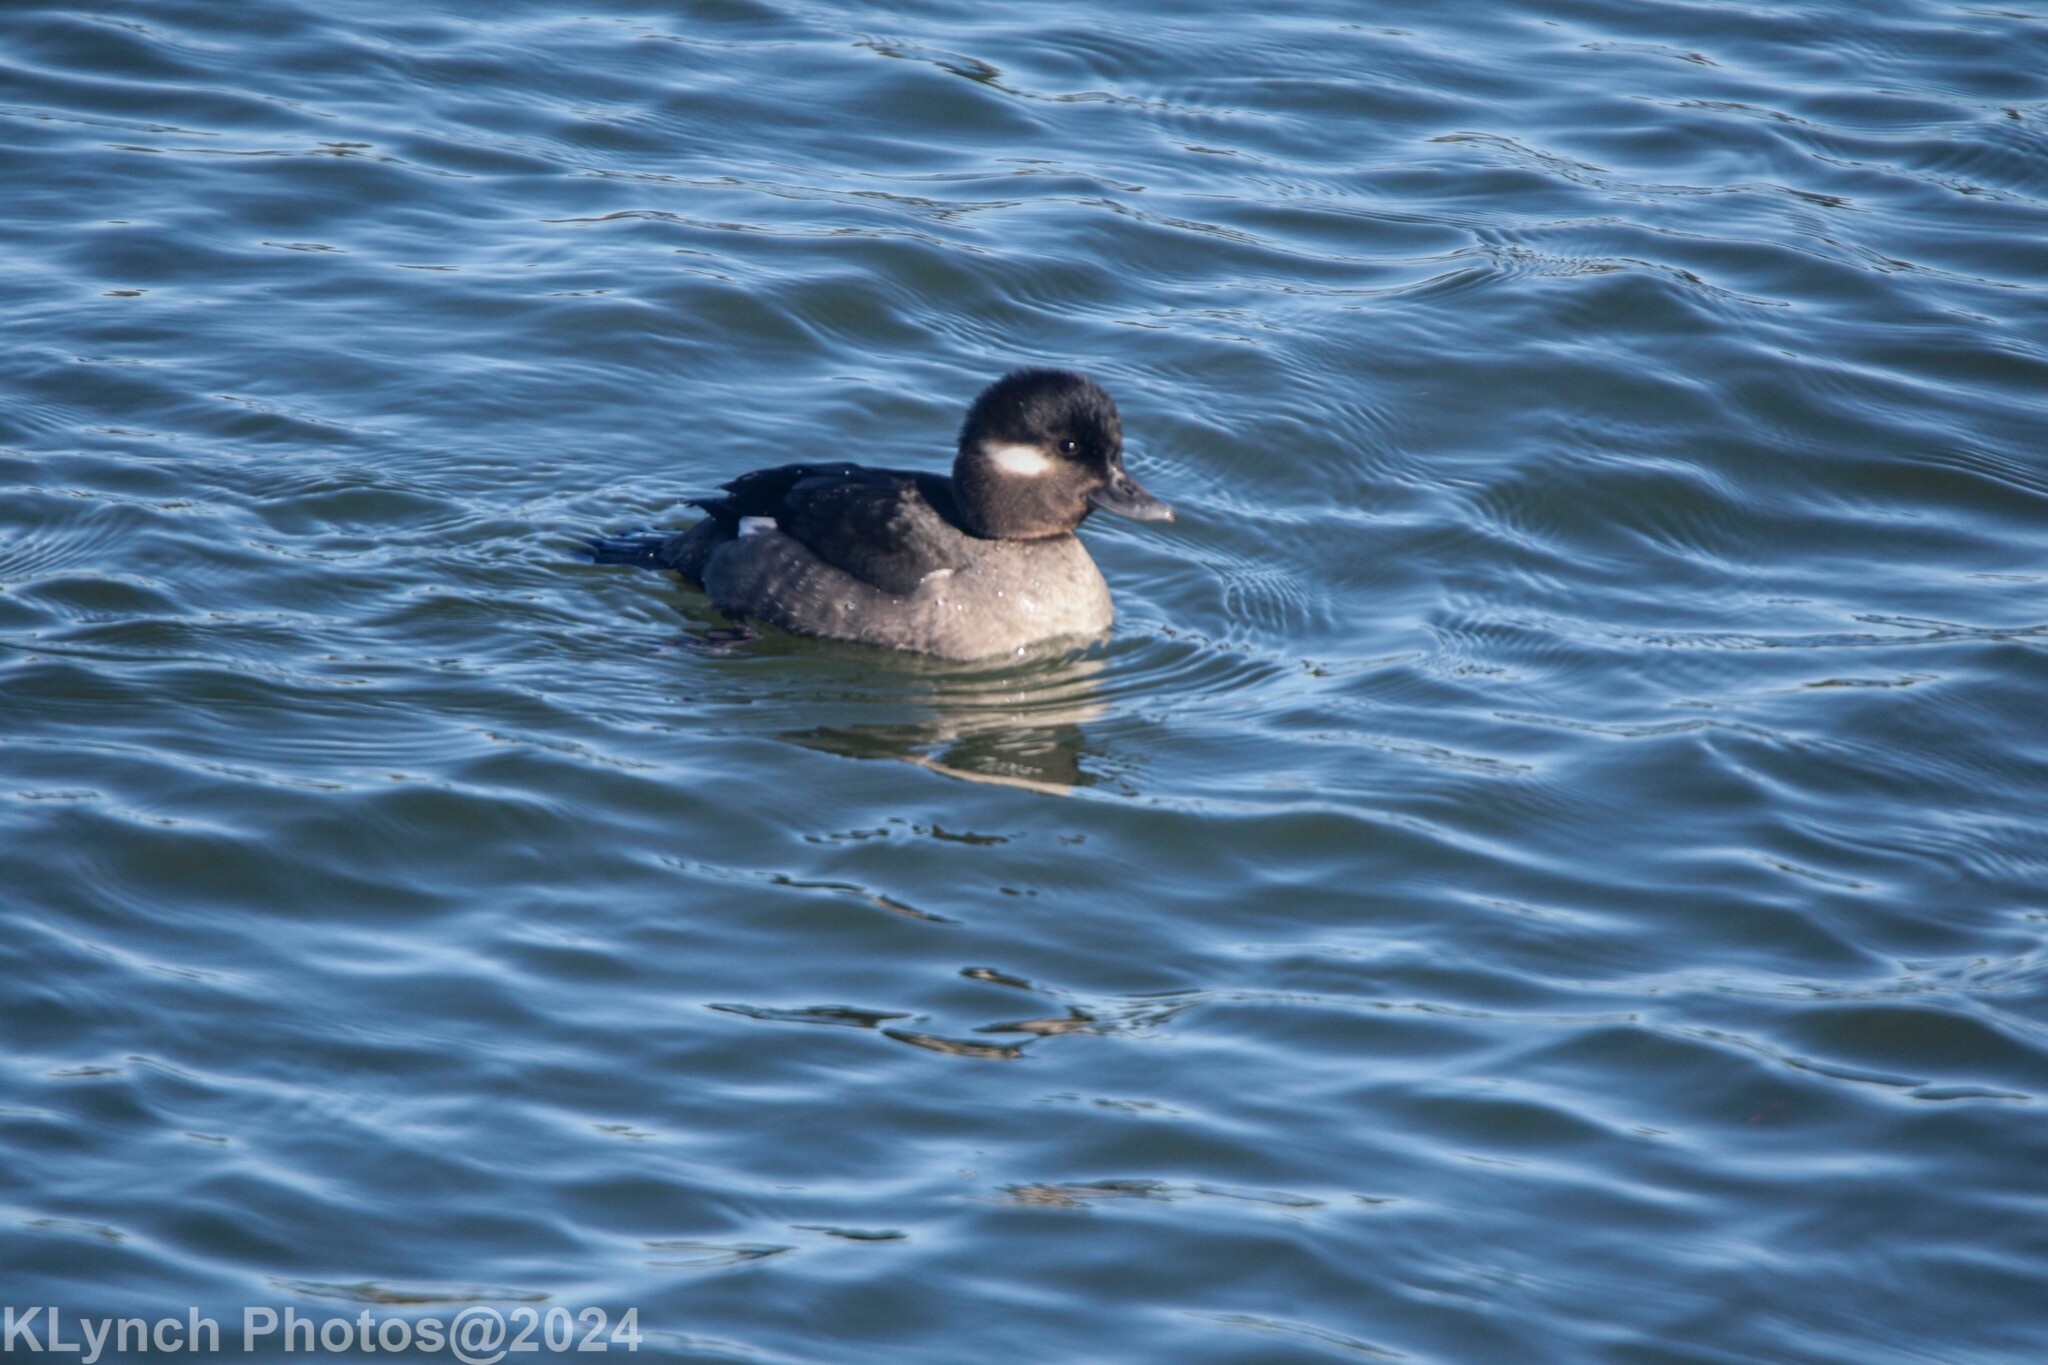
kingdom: Animalia
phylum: Chordata
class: Aves
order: Anseriformes
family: Anatidae
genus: Bucephala
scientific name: Bucephala albeola
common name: Bufflehead
